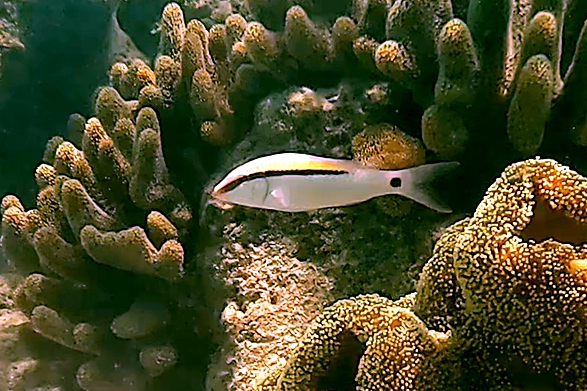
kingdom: Animalia
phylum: Chordata
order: Perciformes
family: Mullidae
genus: Parupeneus
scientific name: Parupeneus barberinus
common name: Dash-and-dot goatfish
